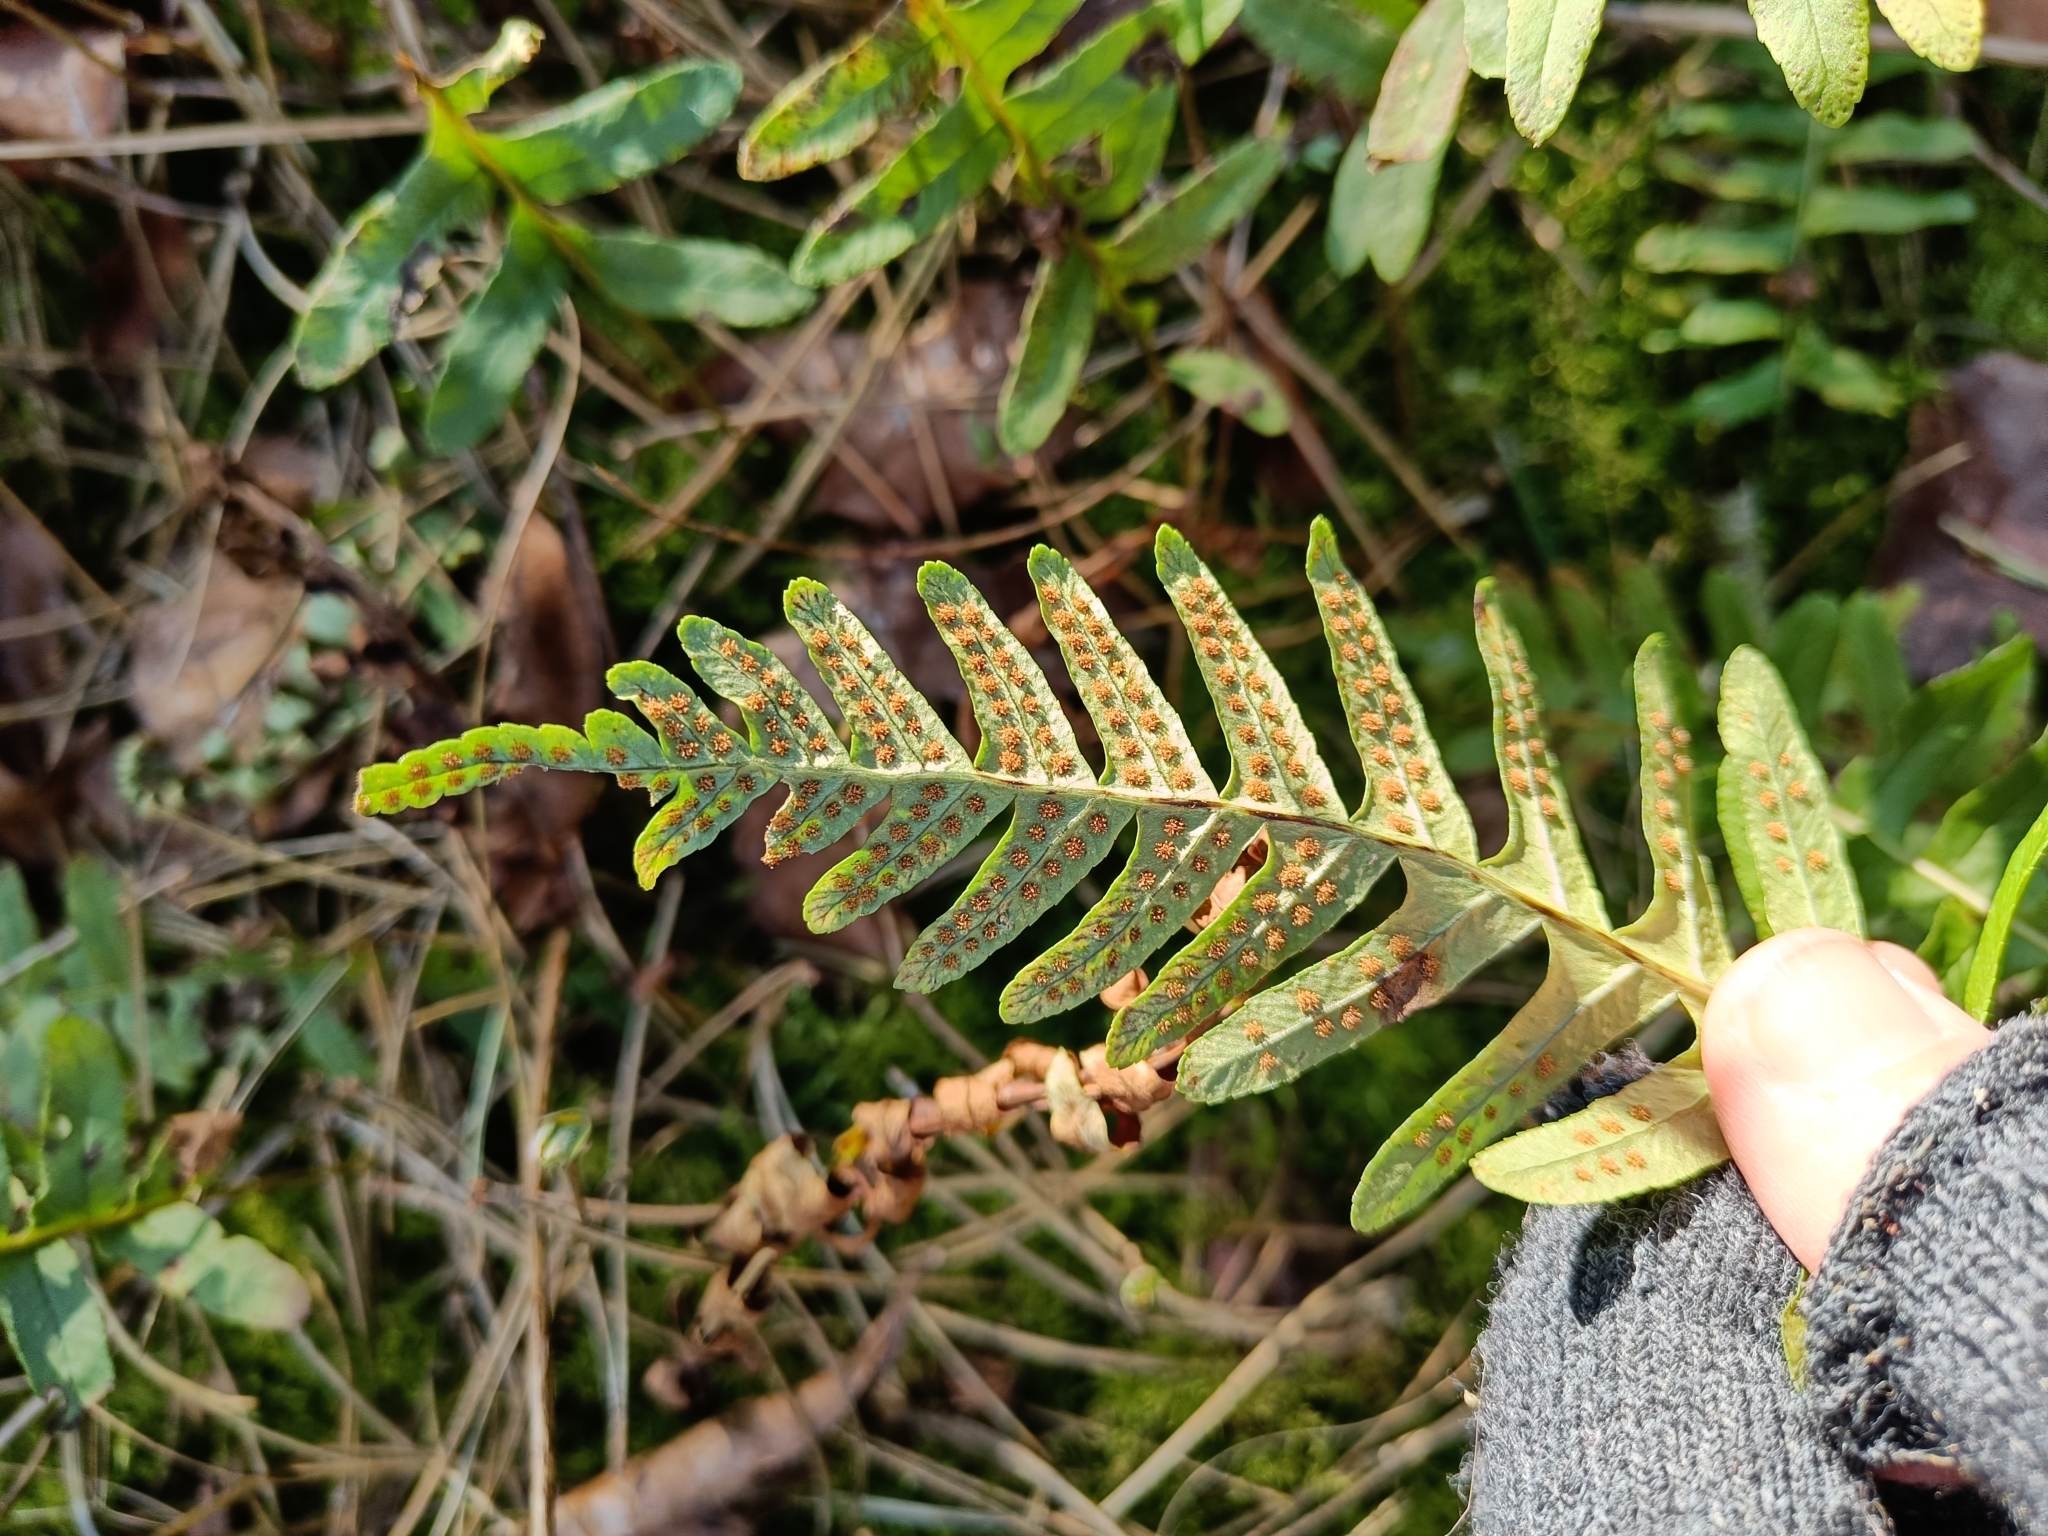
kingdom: Plantae
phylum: Tracheophyta
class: Polypodiopsida
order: Polypodiales
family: Polypodiaceae
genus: Polypodium
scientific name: Polypodium vulgare
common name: Common polypody
